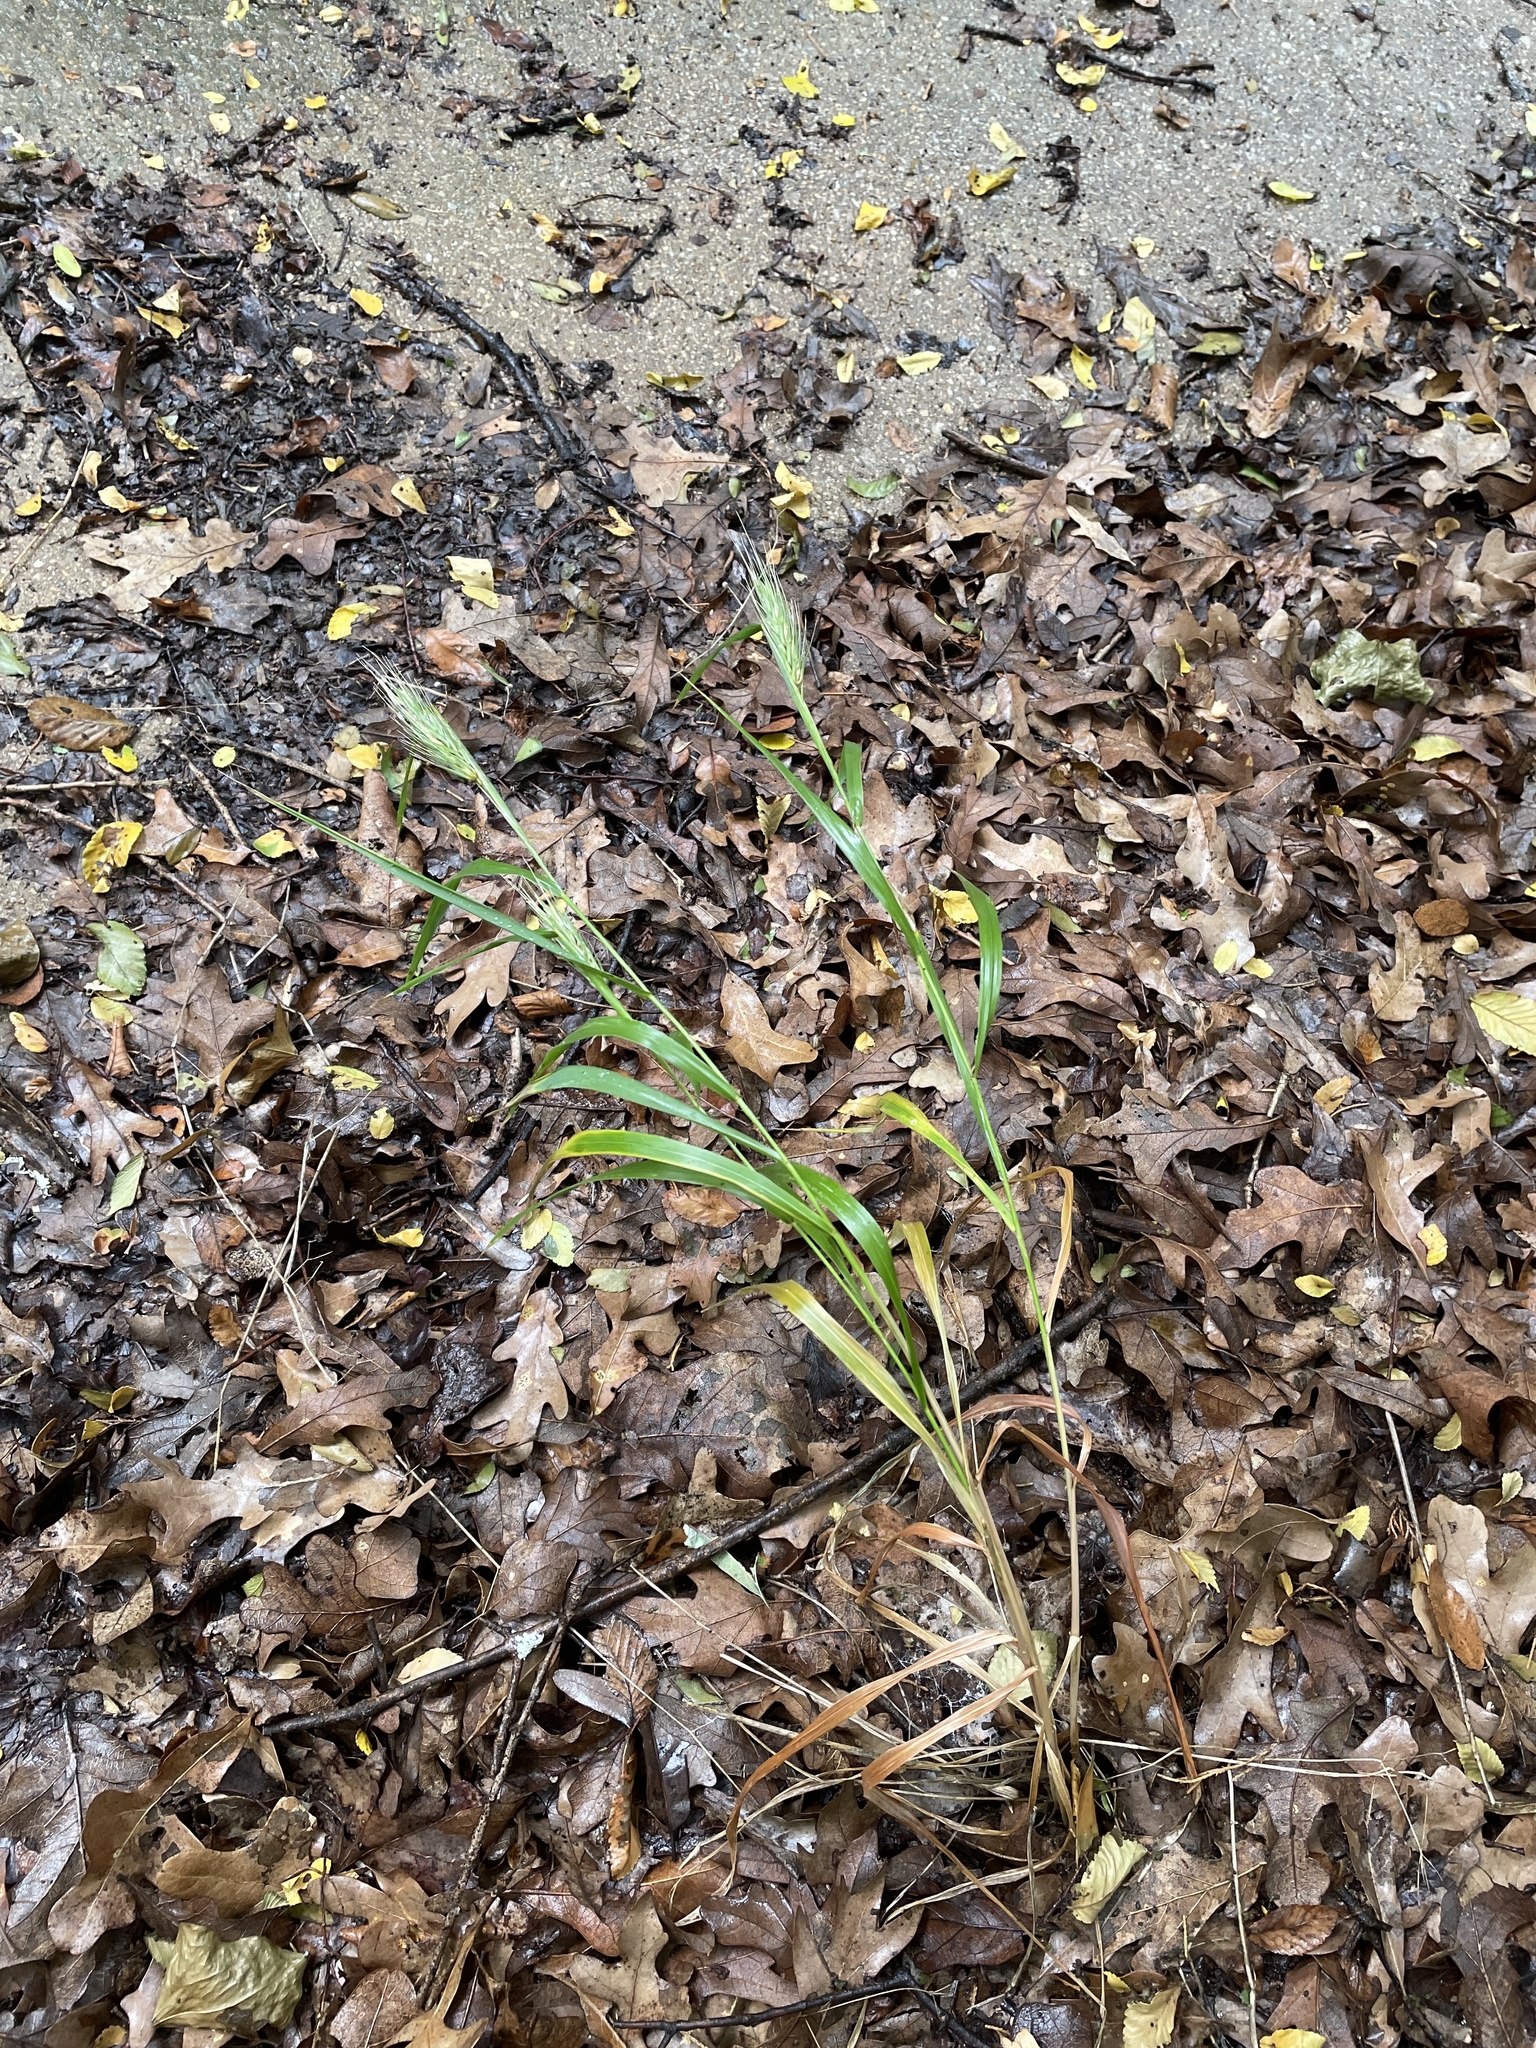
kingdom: Plantae
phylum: Tracheophyta
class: Liliopsida
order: Poales
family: Poaceae
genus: Elymus
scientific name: Elymus virginicus
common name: Common eastern wildrye
